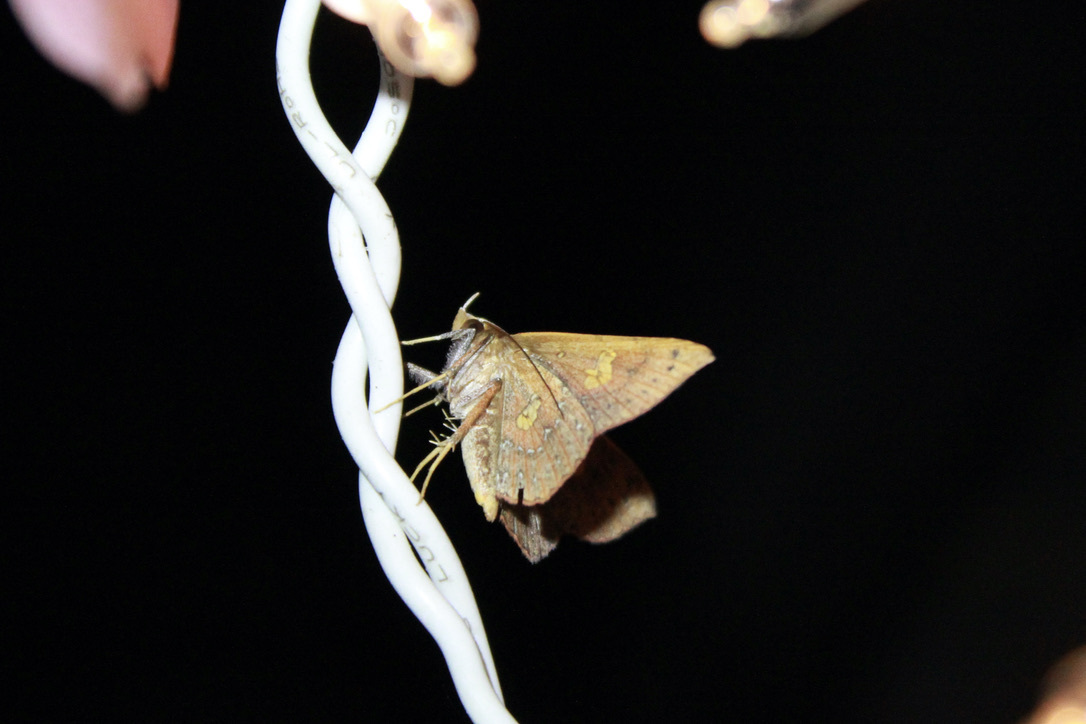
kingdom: Animalia
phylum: Arthropoda
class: Insecta
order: Lepidoptera
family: Erebidae
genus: Oxidercia
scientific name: Oxidercia toxea
